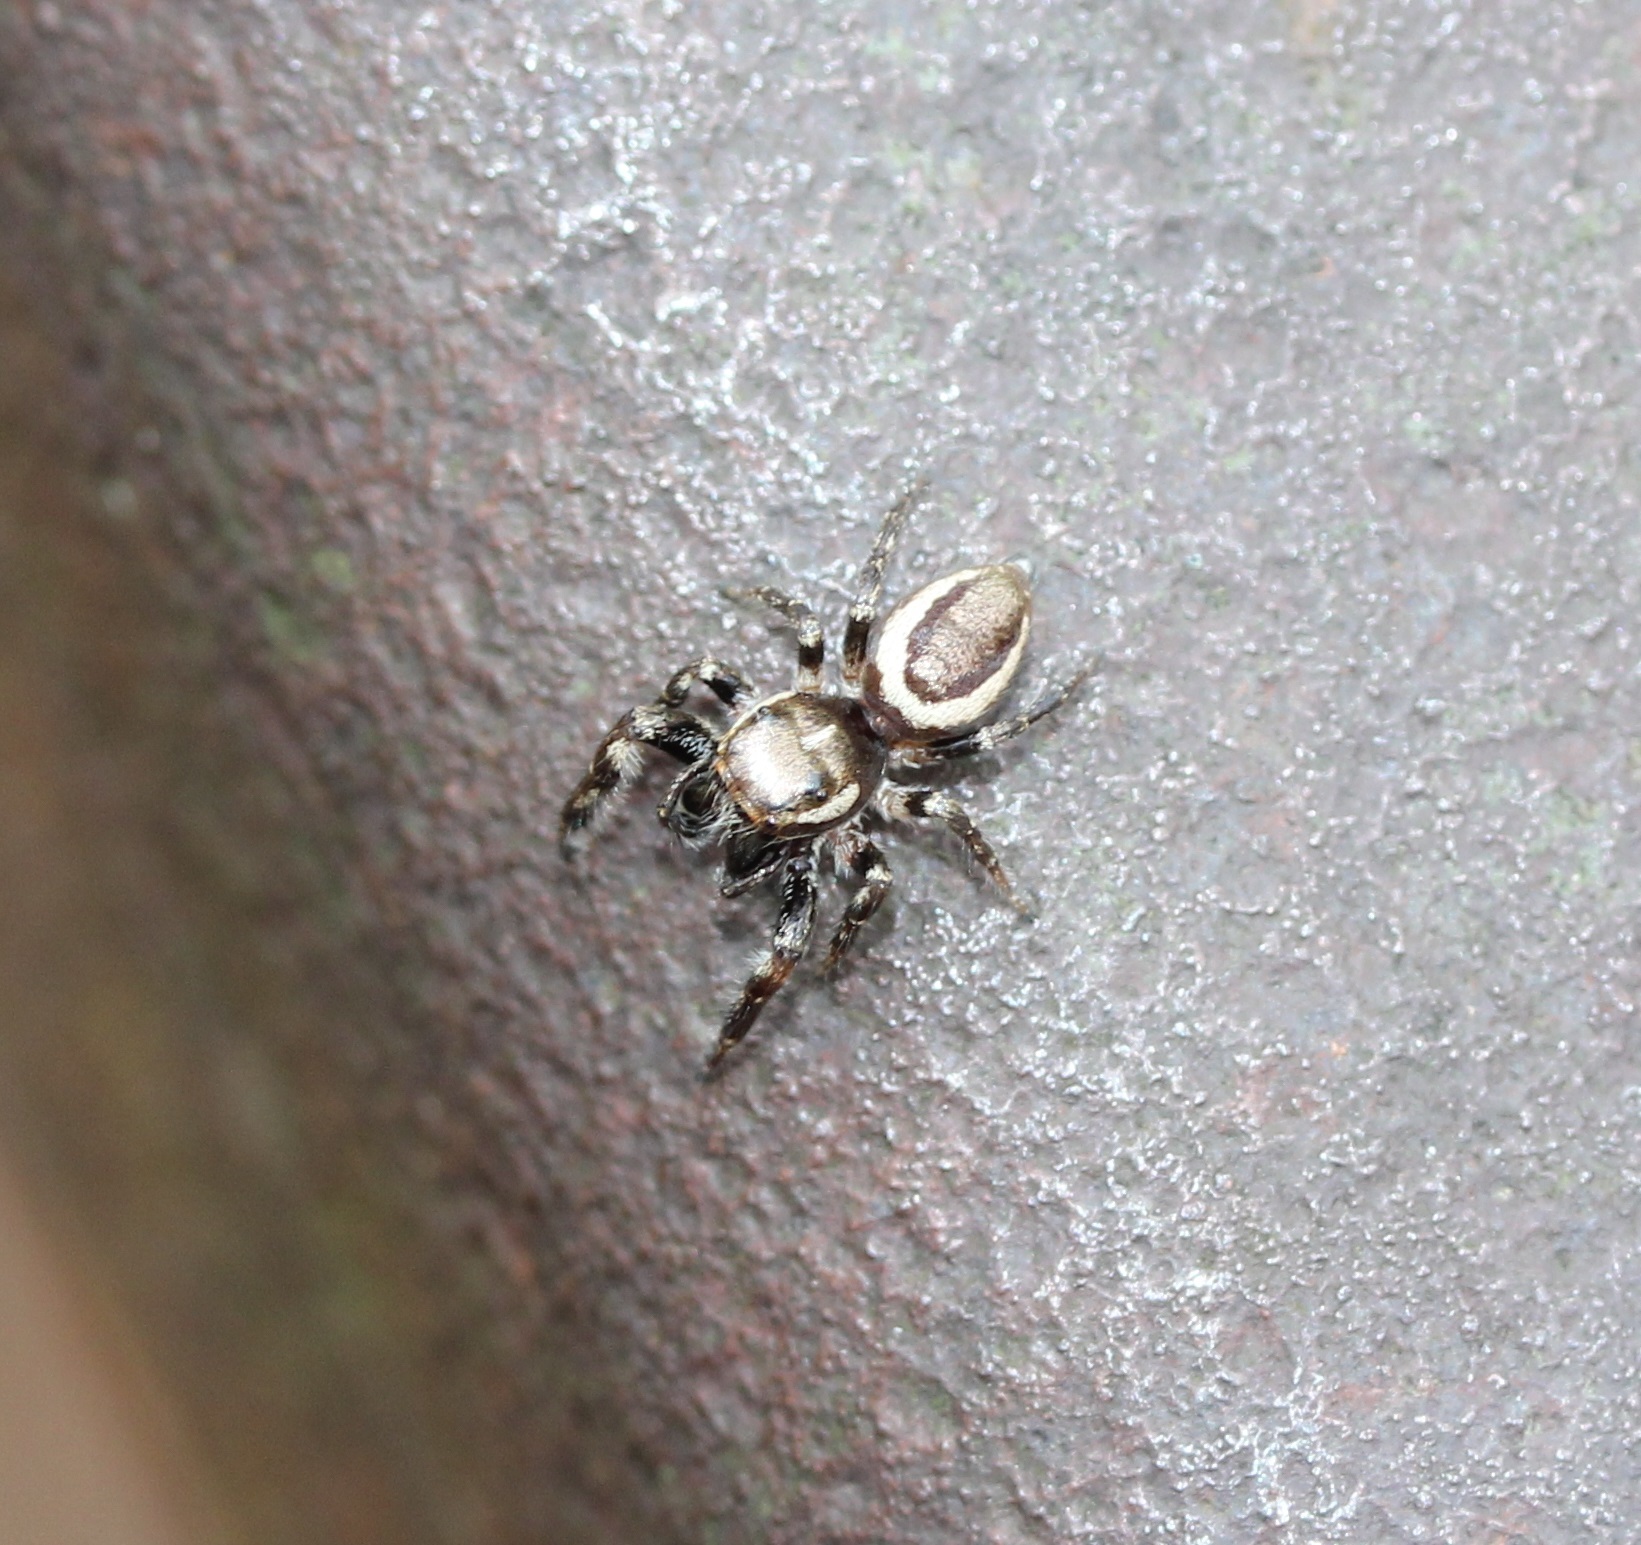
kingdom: Animalia
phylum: Arthropoda
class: Arachnida
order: Araneae
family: Salticidae
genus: Eris
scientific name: Eris militaris
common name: Bronze jumper
